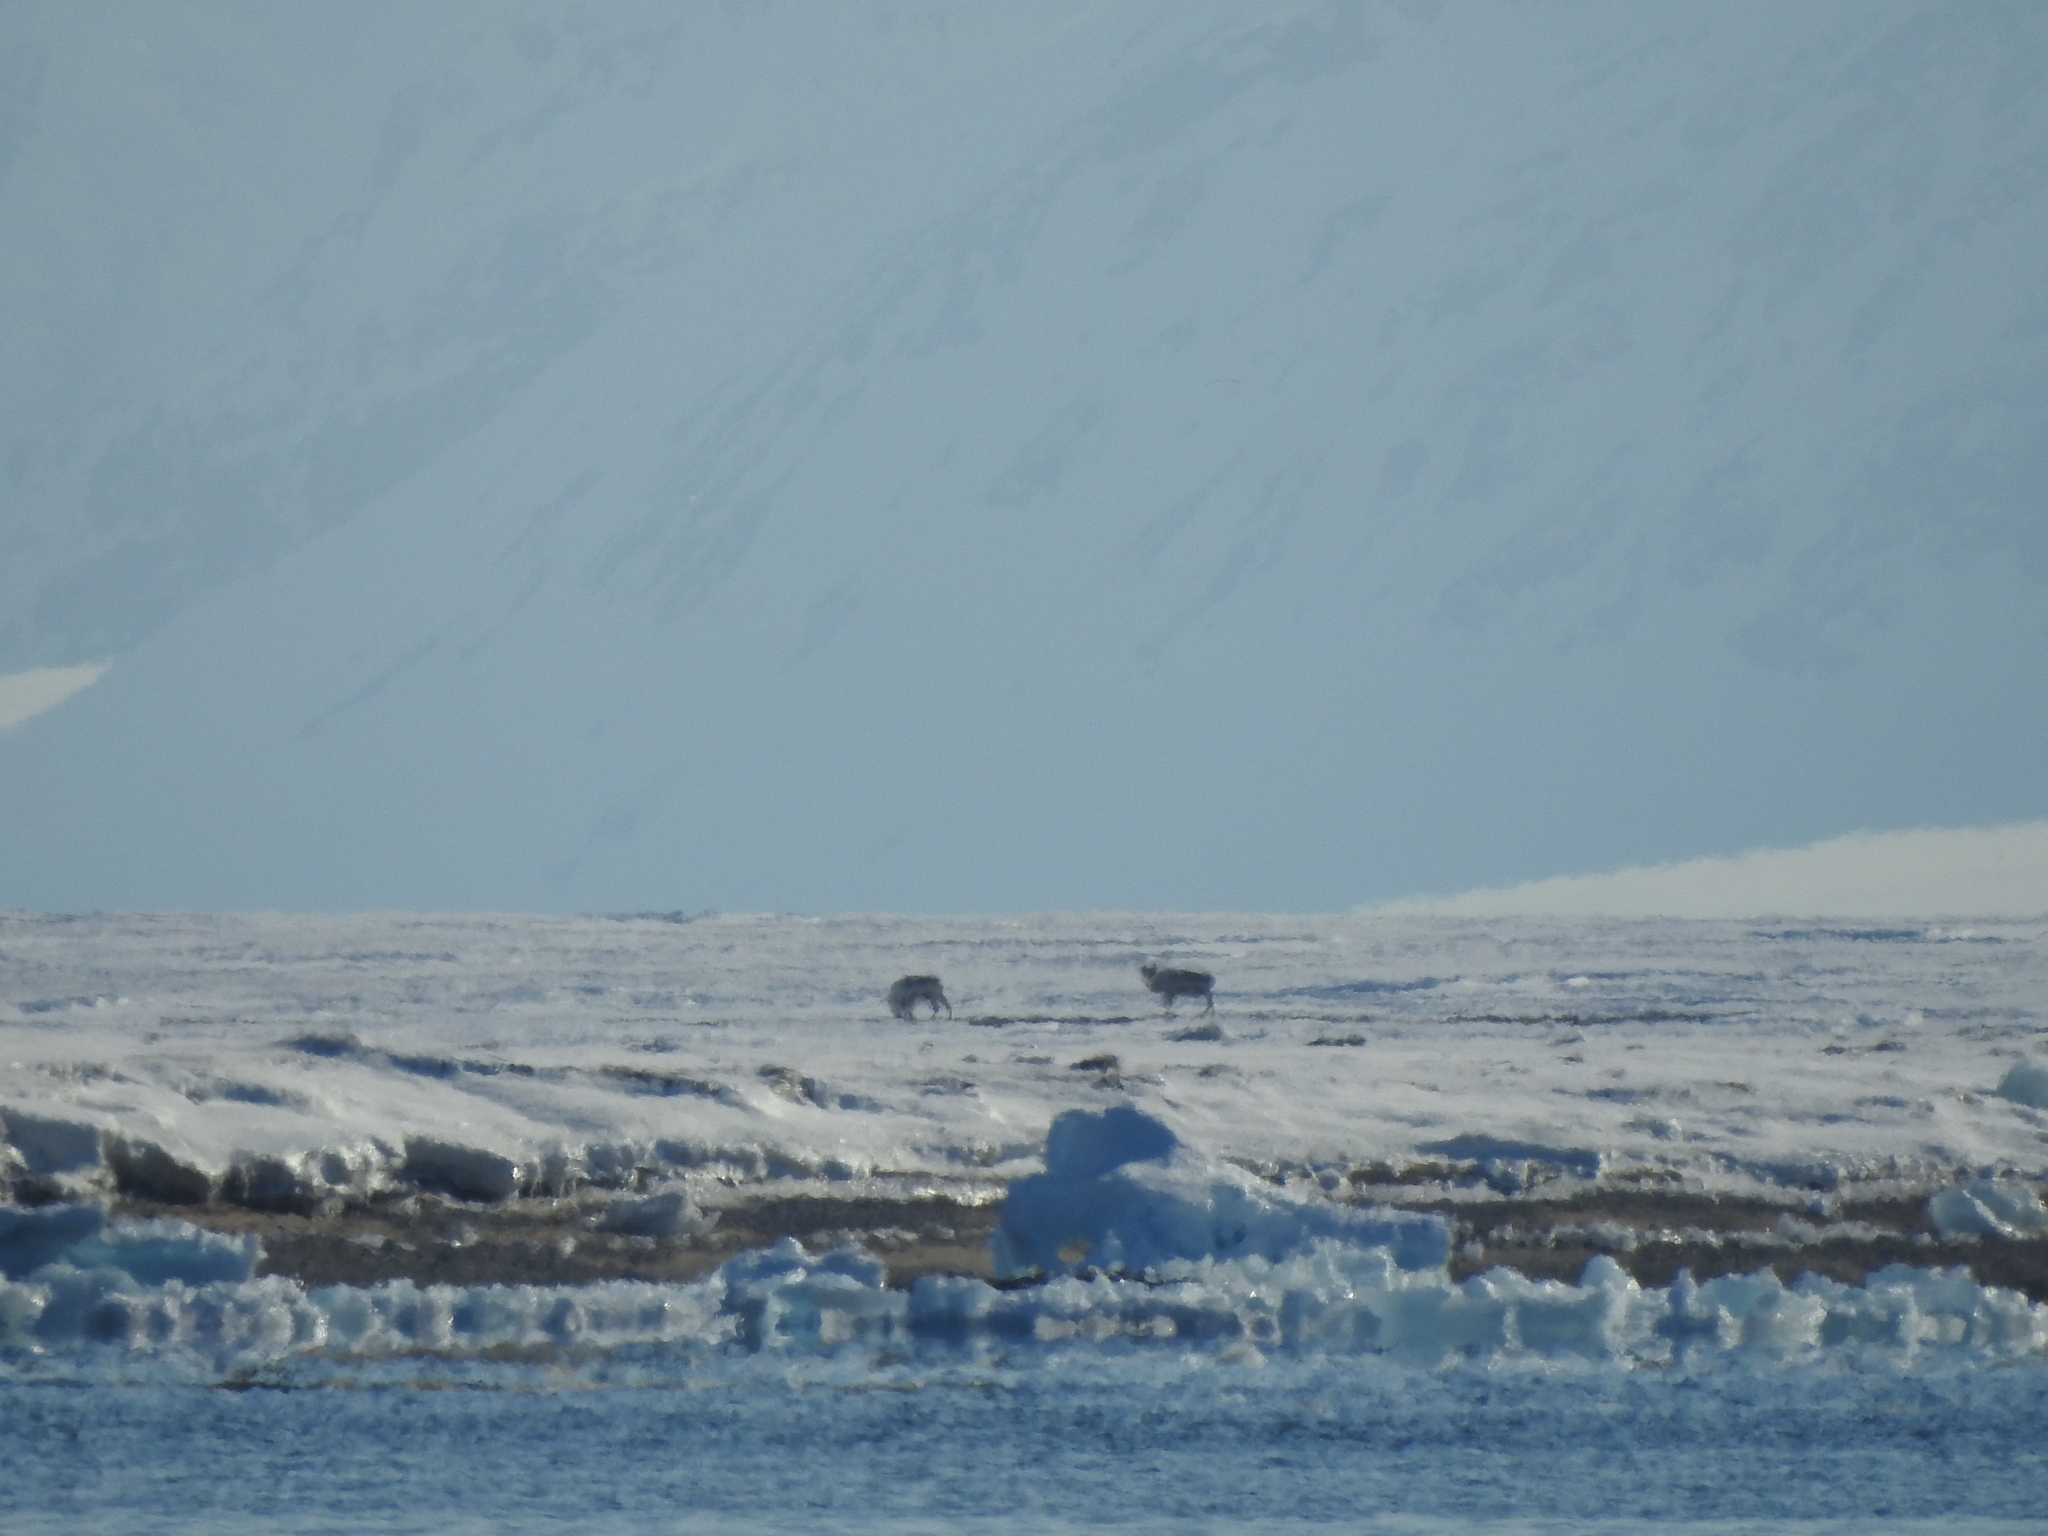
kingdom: Animalia
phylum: Chordata
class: Mammalia
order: Artiodactyla
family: Cervidae
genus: Rangifer
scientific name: Rangifer tarandus
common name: Reindeer
